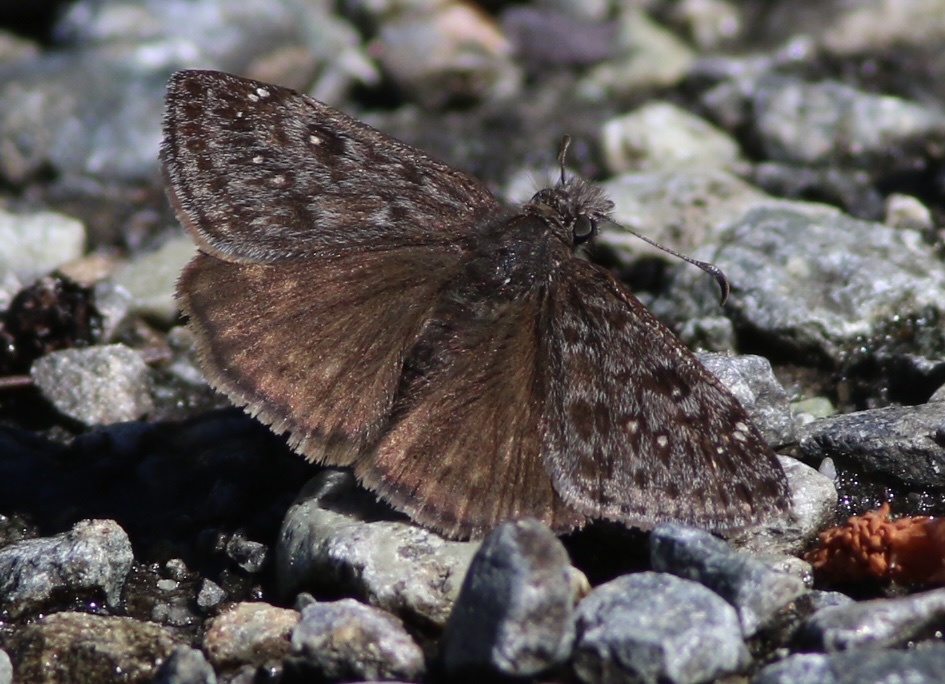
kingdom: Animalia
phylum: Arthropoda
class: Insecta
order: Lepidoptera
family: Hesperiidae
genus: Erynnis
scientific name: Erynnis propertius
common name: Propertius duskywing
